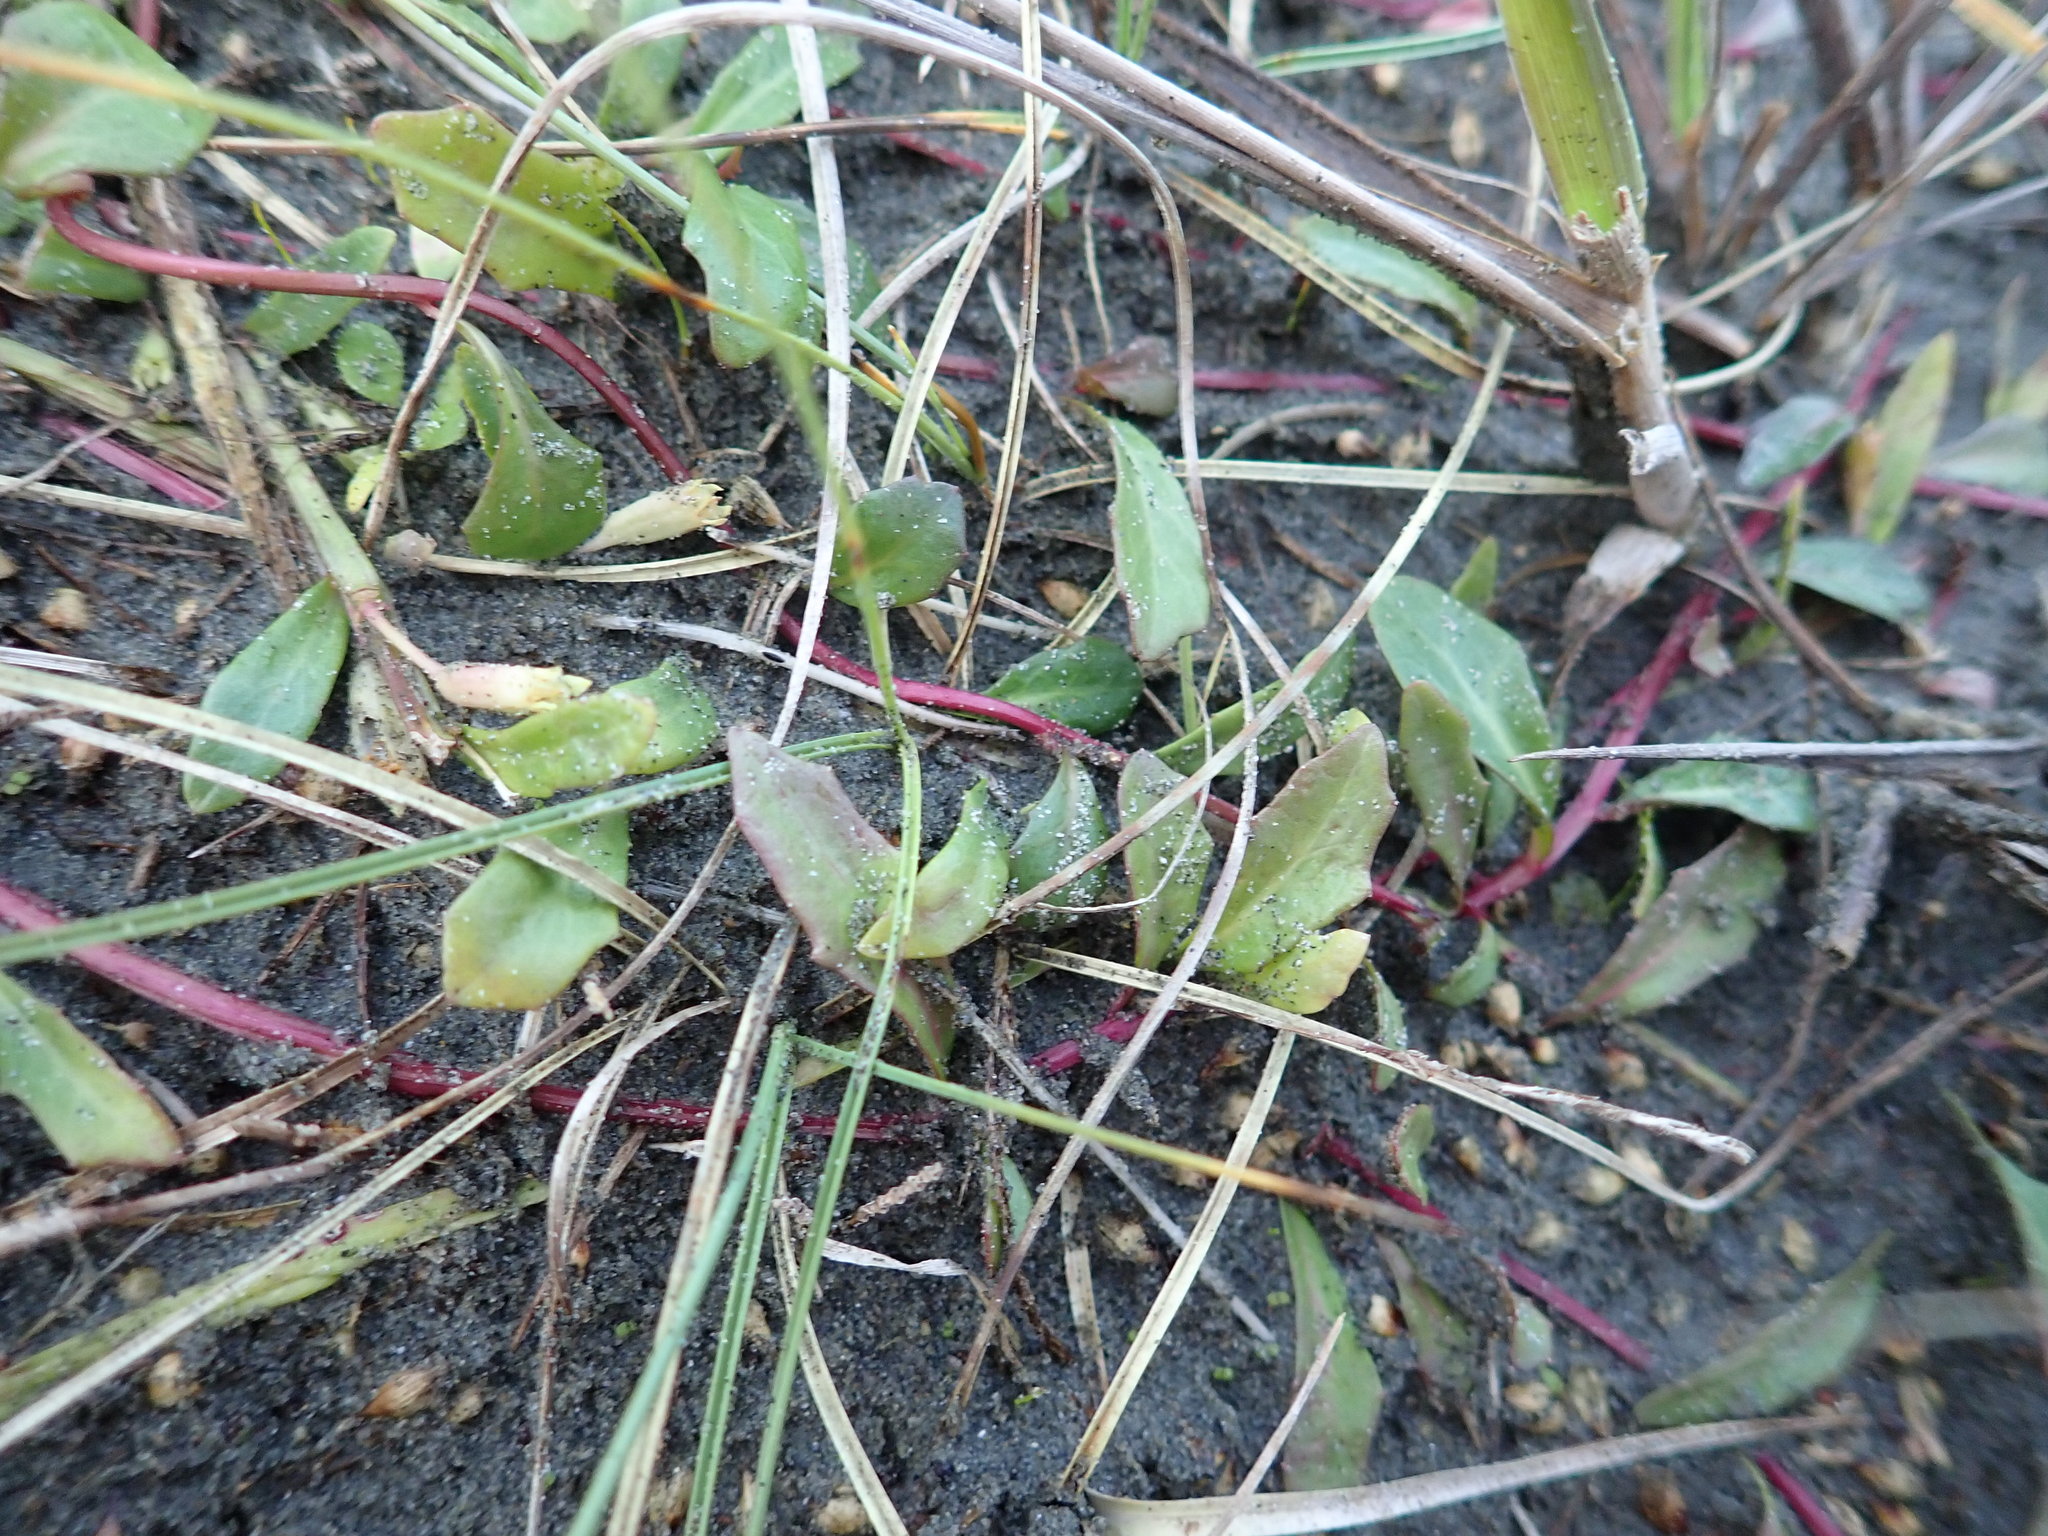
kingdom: Plantae
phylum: Tracheophyta
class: Magnoliopsida
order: Asterales
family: Campanulaceae
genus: Lobelia
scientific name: Lobelia anceps
